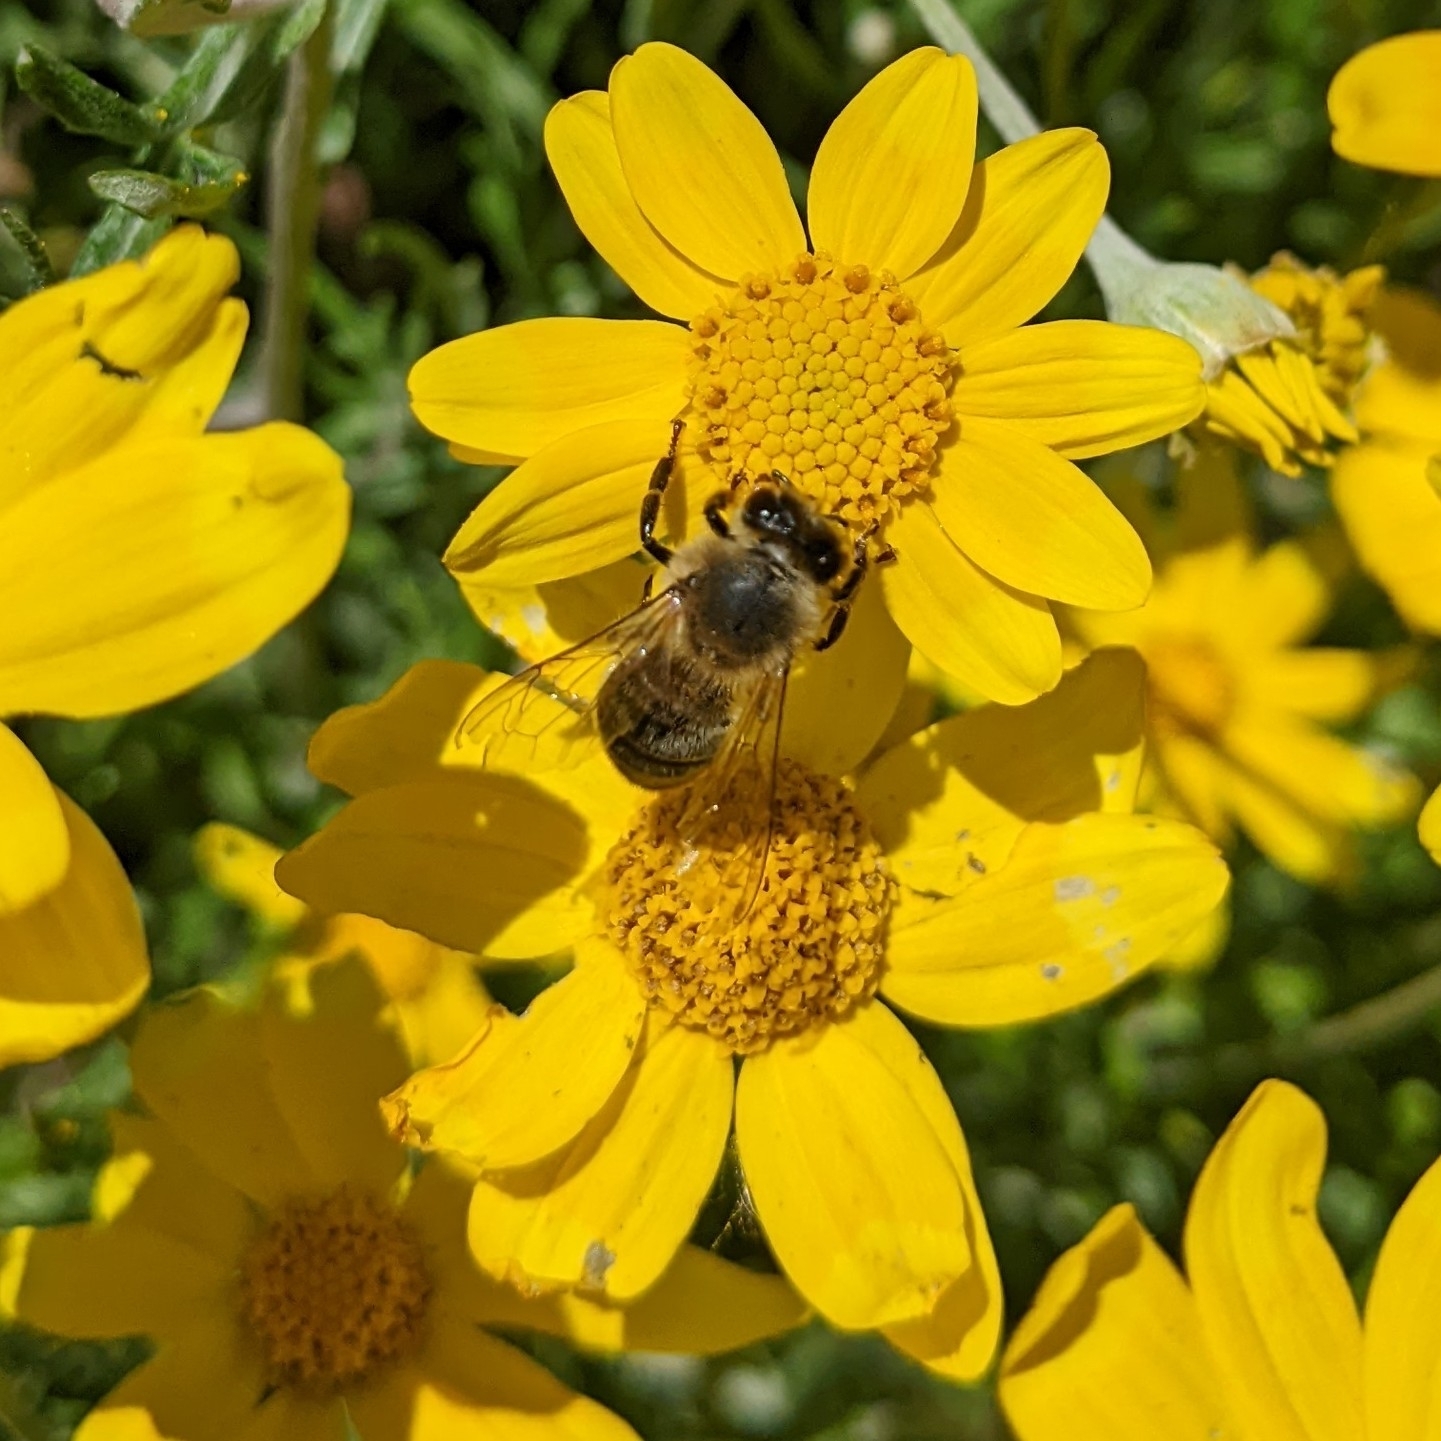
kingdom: Animalia
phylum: Arthropoda
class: Insecta
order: Hymenoptera
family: Apidae
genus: Apis
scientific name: Apis mellifera
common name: Honey bee
